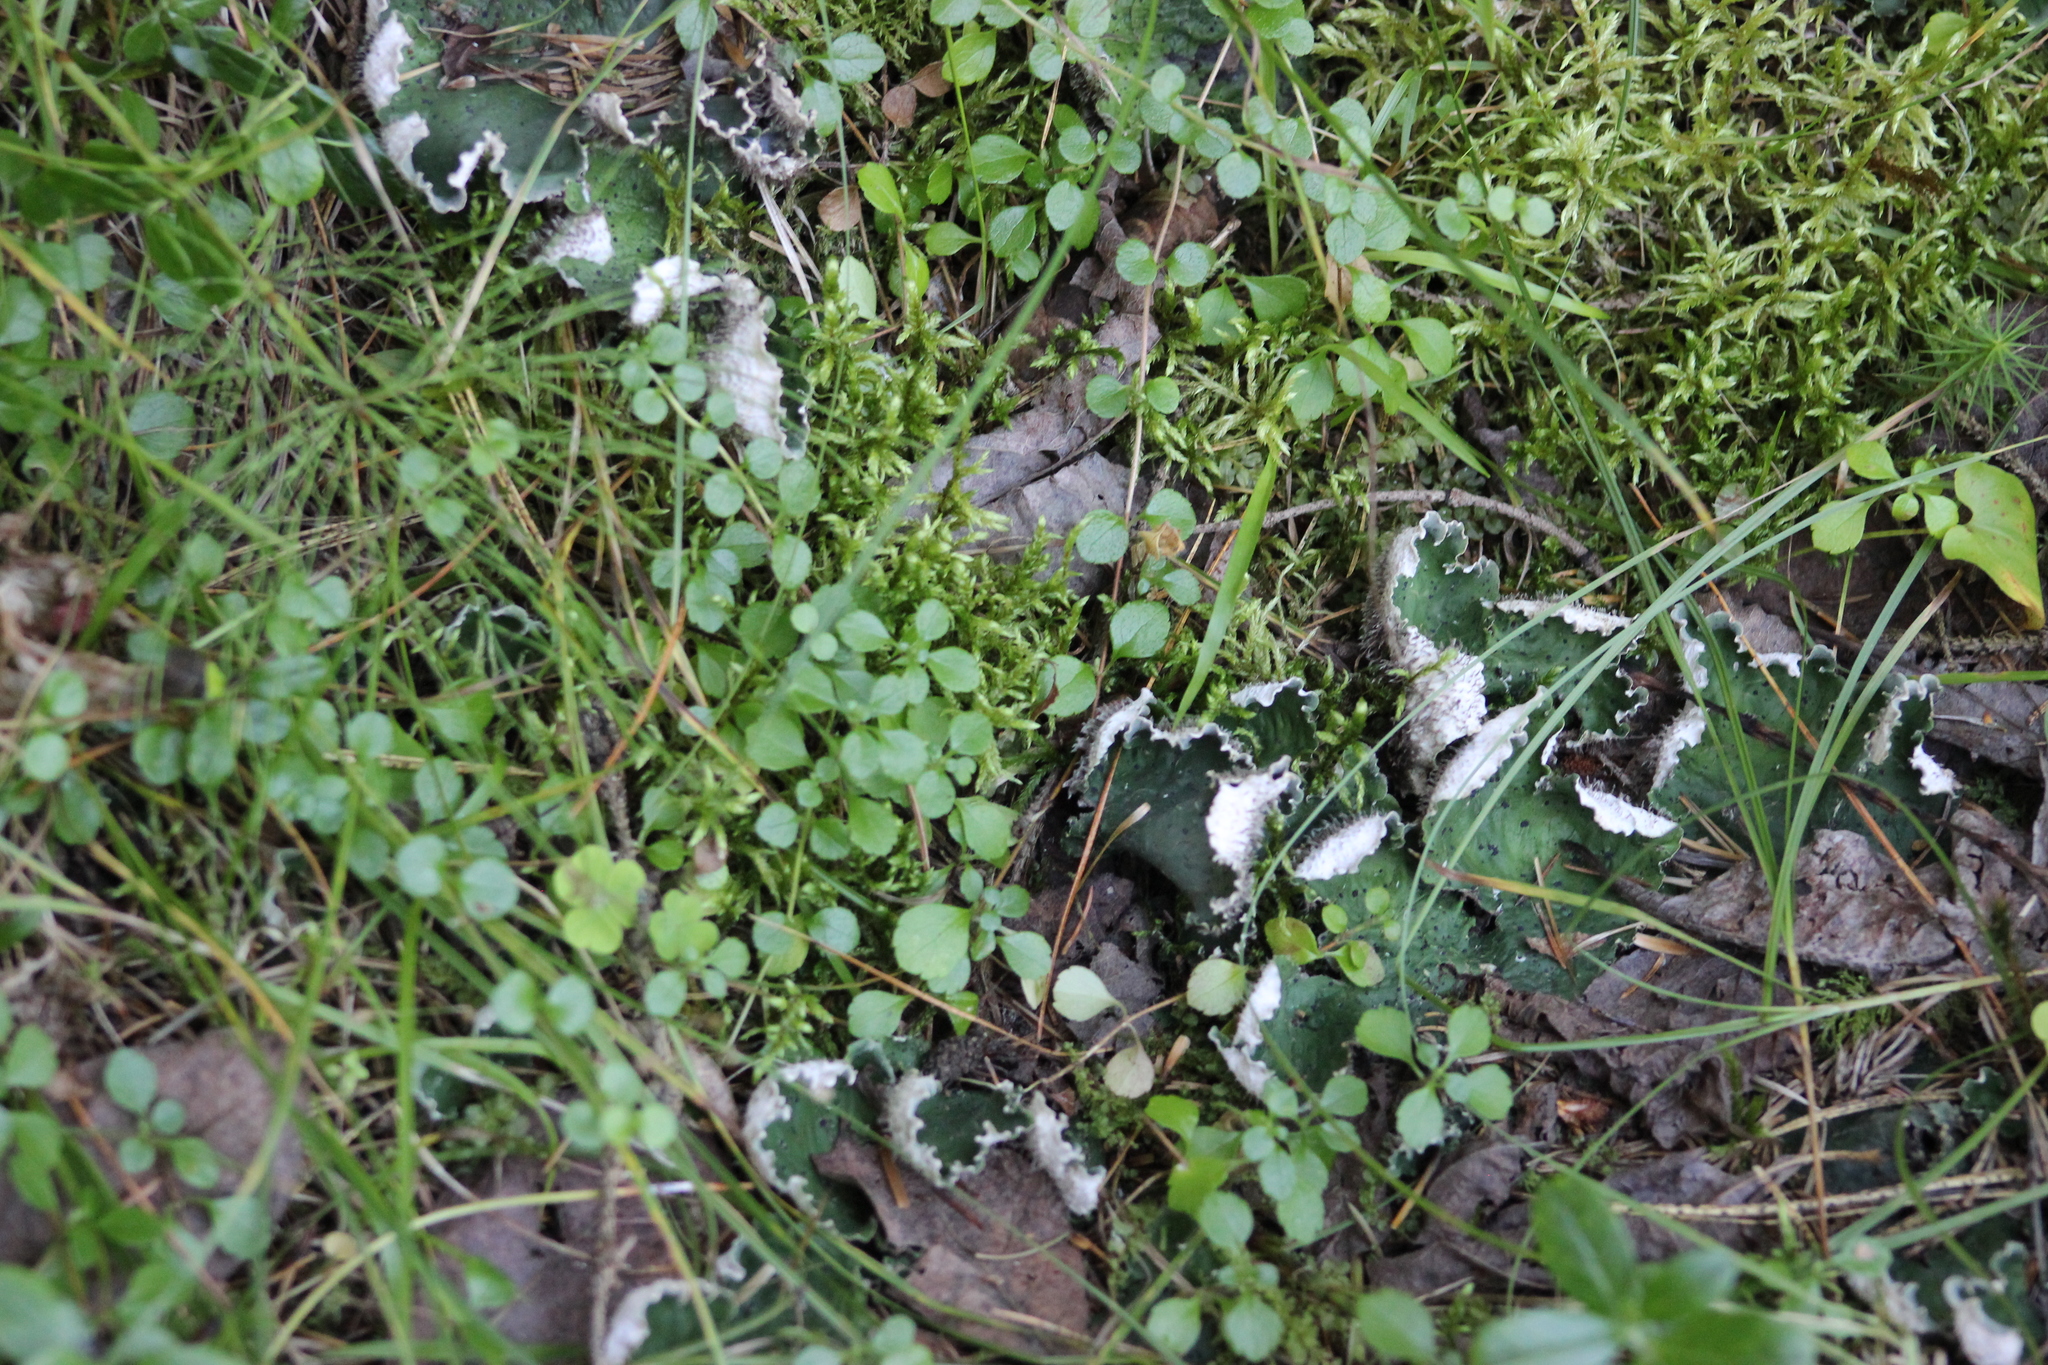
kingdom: Fungi
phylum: Ascomycota
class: Lecanoromycetes
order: Peltigerales
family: Peltigeraceae
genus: Peltigera
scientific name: Peltigera aphthosa
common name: Common freckle pelt lichen
